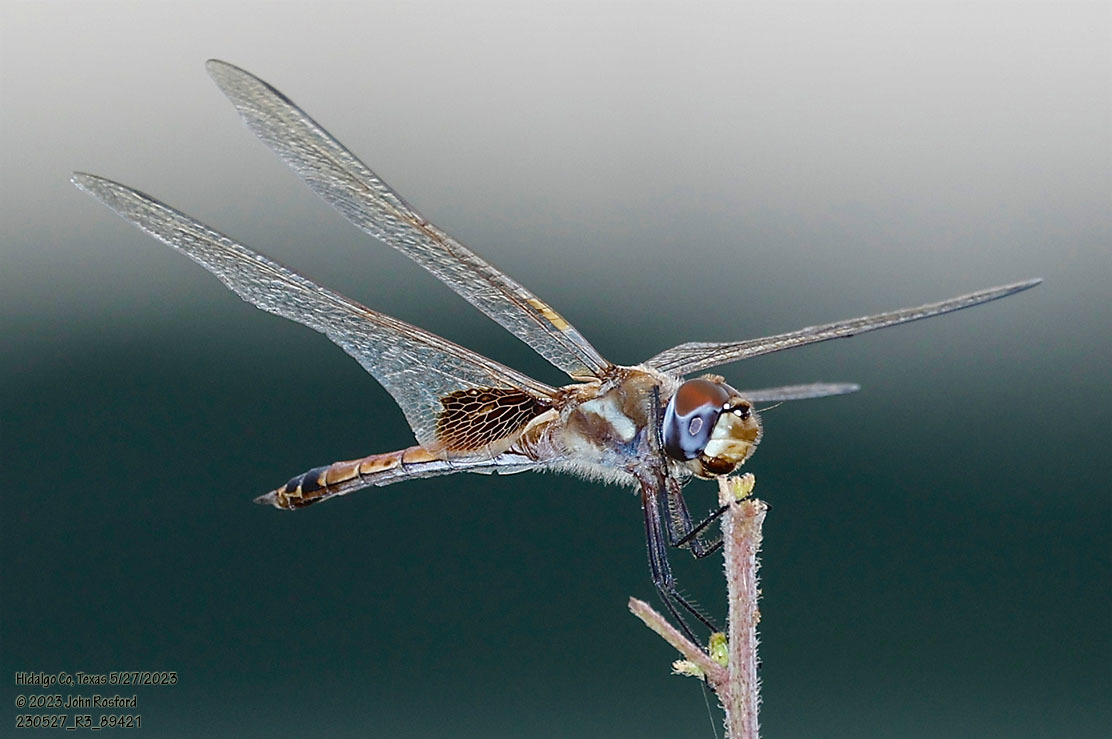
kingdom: Animalia
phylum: Arthropoda
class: Insecta
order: Odonata
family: Libellulidae
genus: Tramea
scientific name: Tramea darwini
